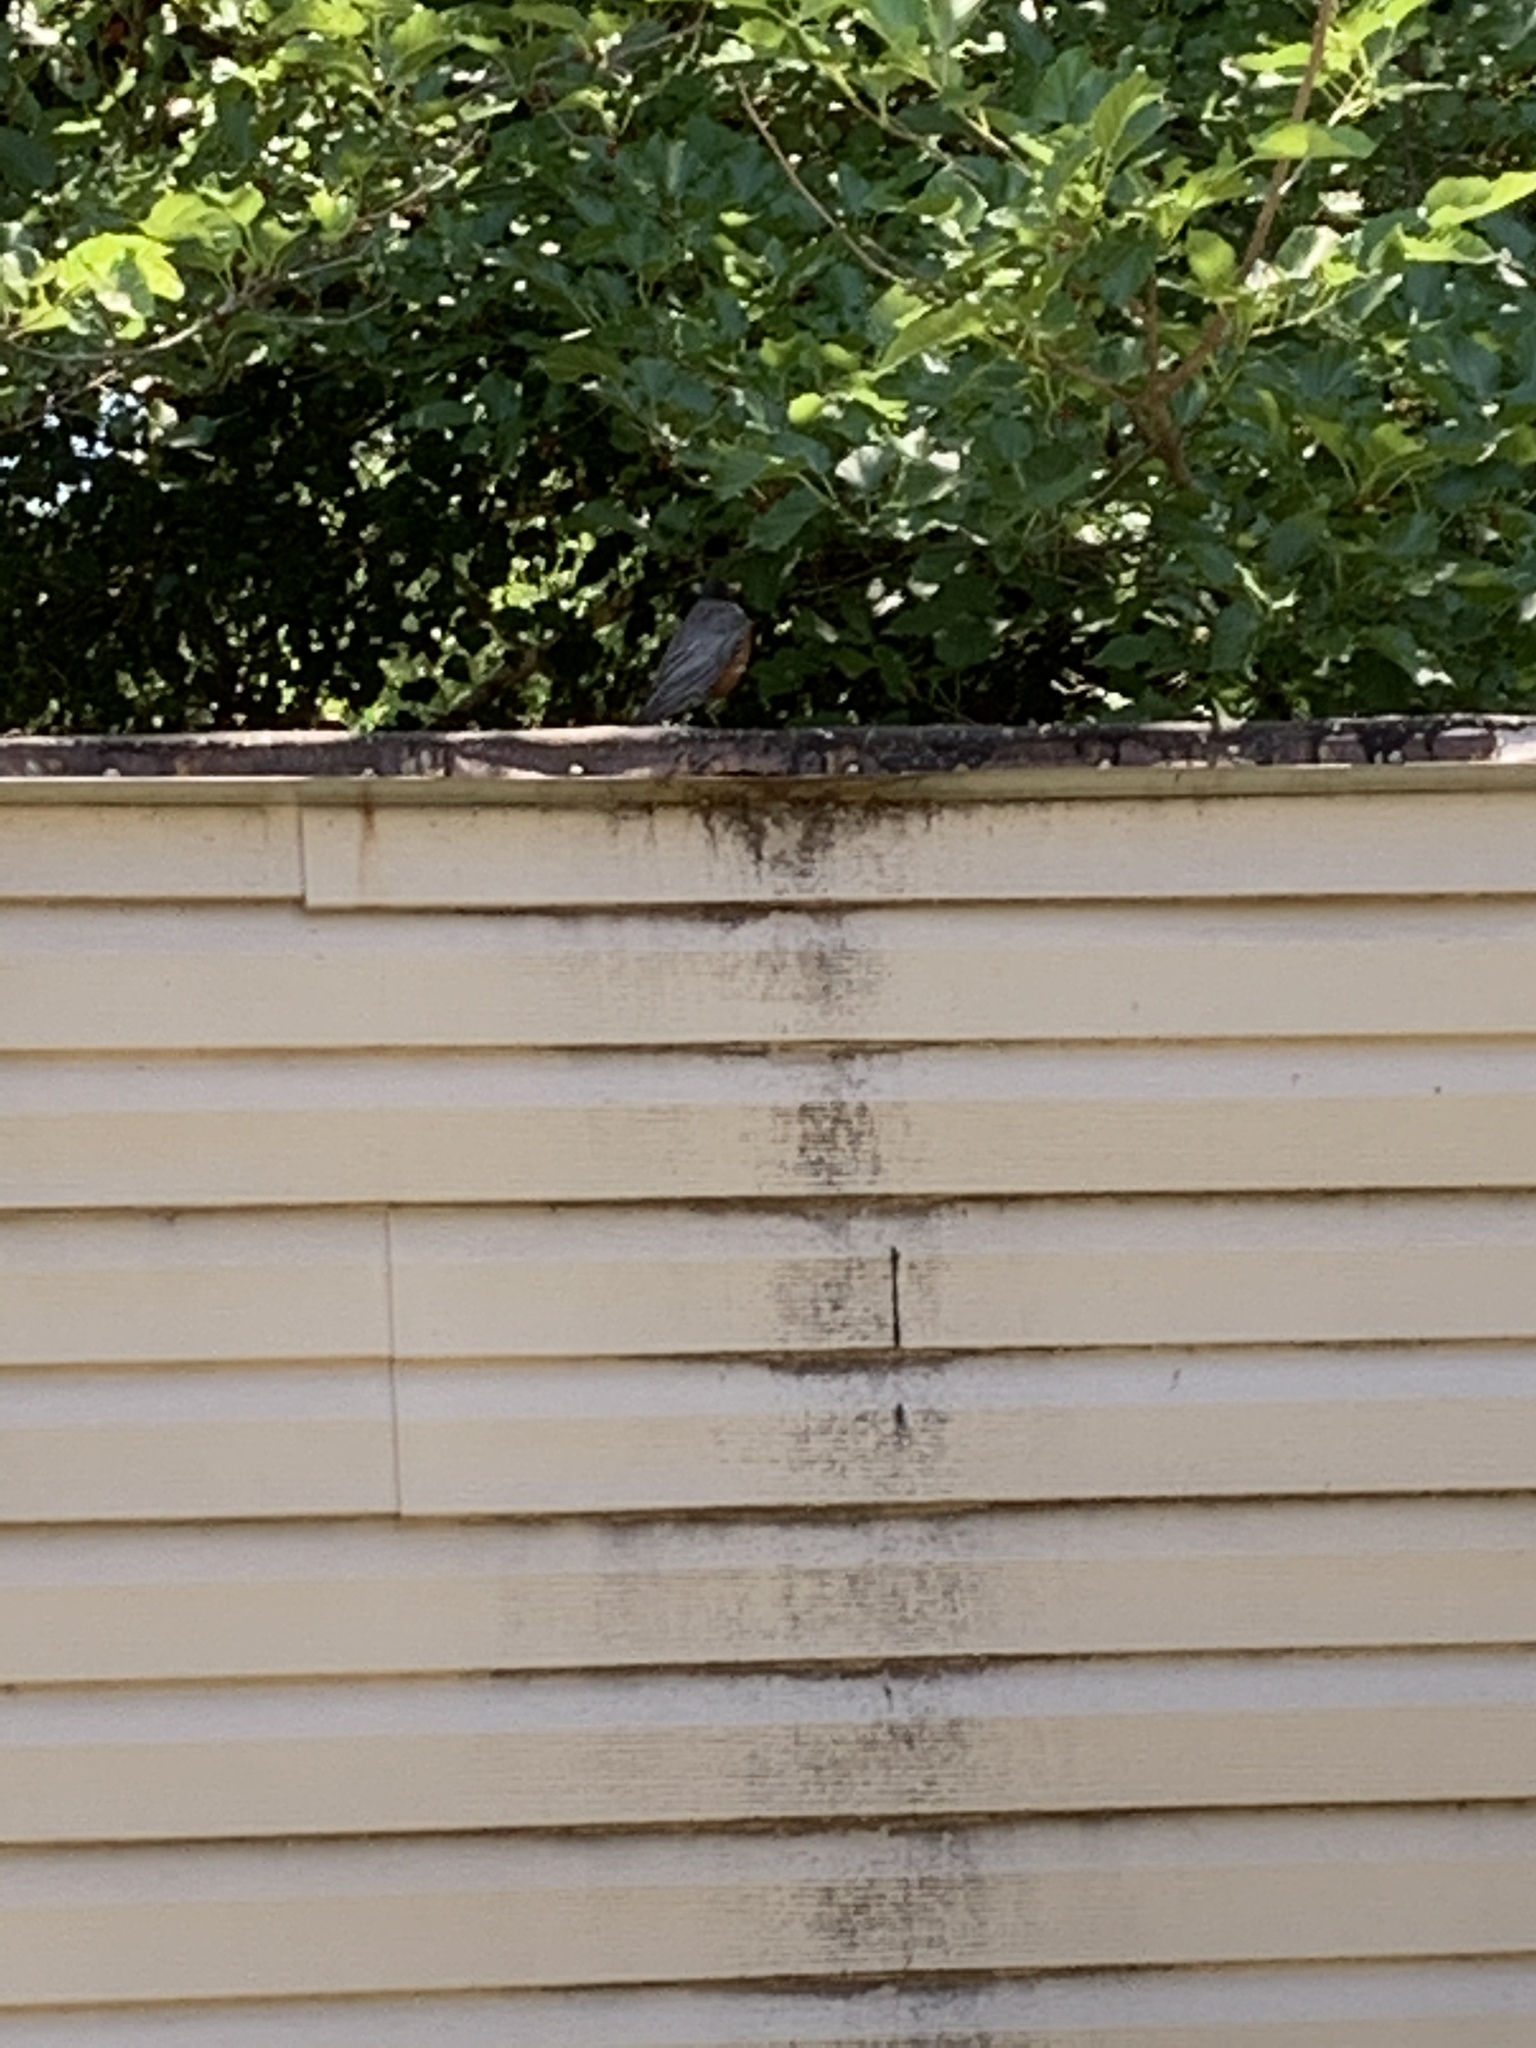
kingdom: Animalia
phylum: Chordata
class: Aves
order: Passeriformes
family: Turdidae
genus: Turdus
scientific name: Turdus migratorius
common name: American robin
